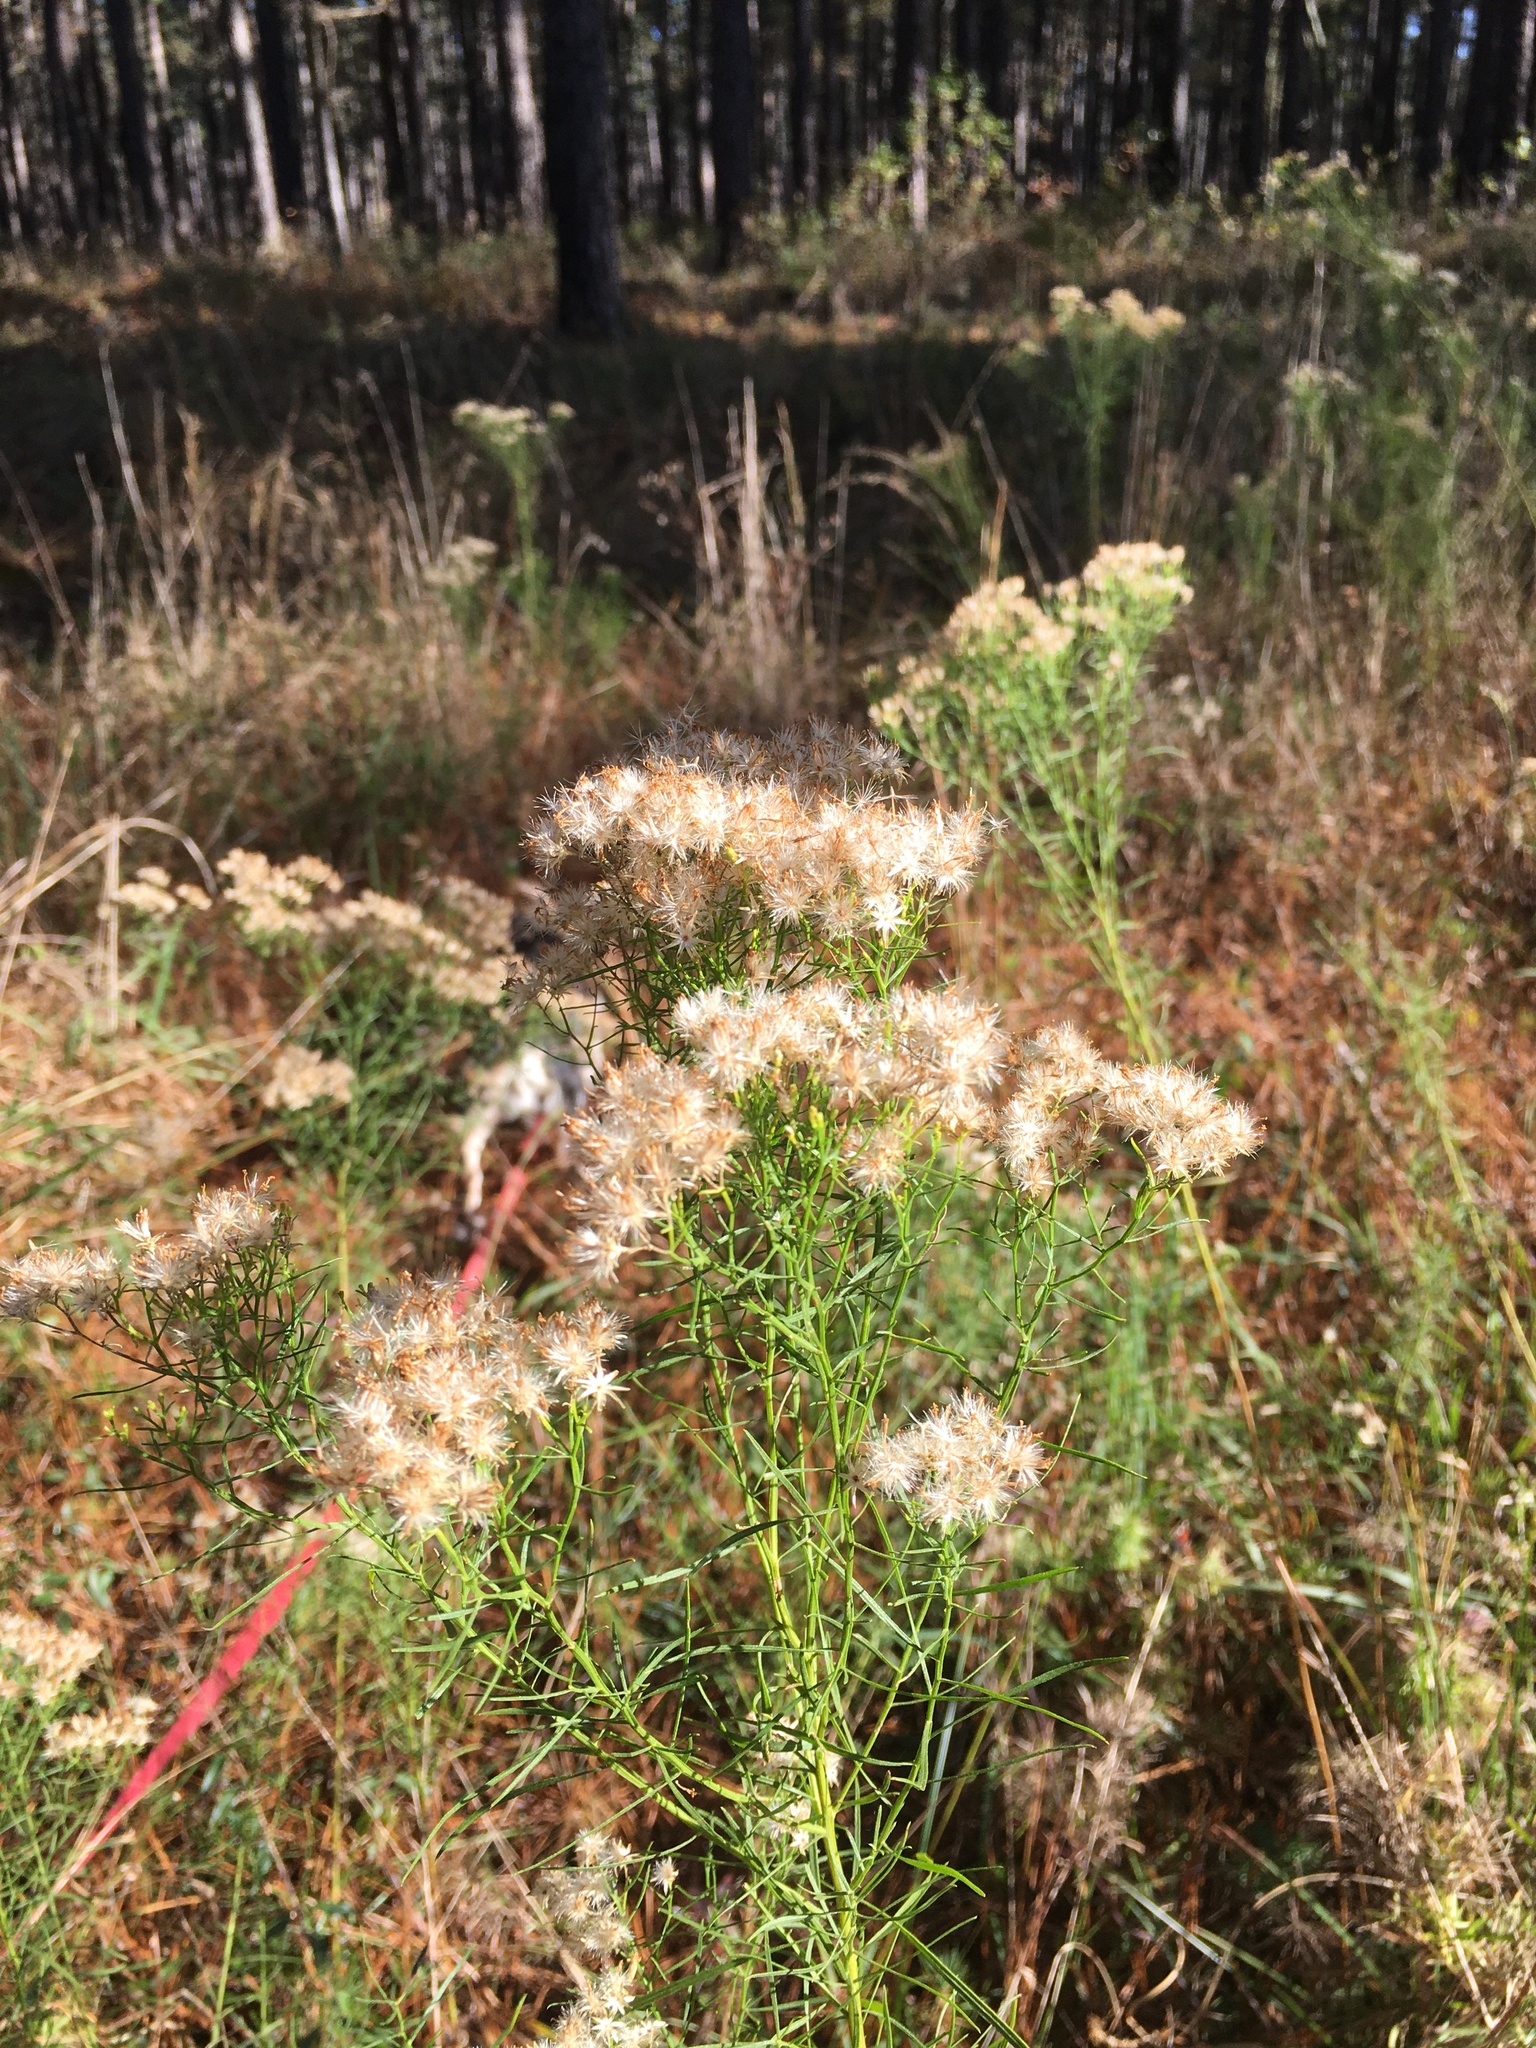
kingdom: Plantae
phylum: Tracheophyta
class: Magnoliopsida
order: Asterales
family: Asteraceae
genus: Euthamia
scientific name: Euthamia caroliniana
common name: Coastal plain goldentop
